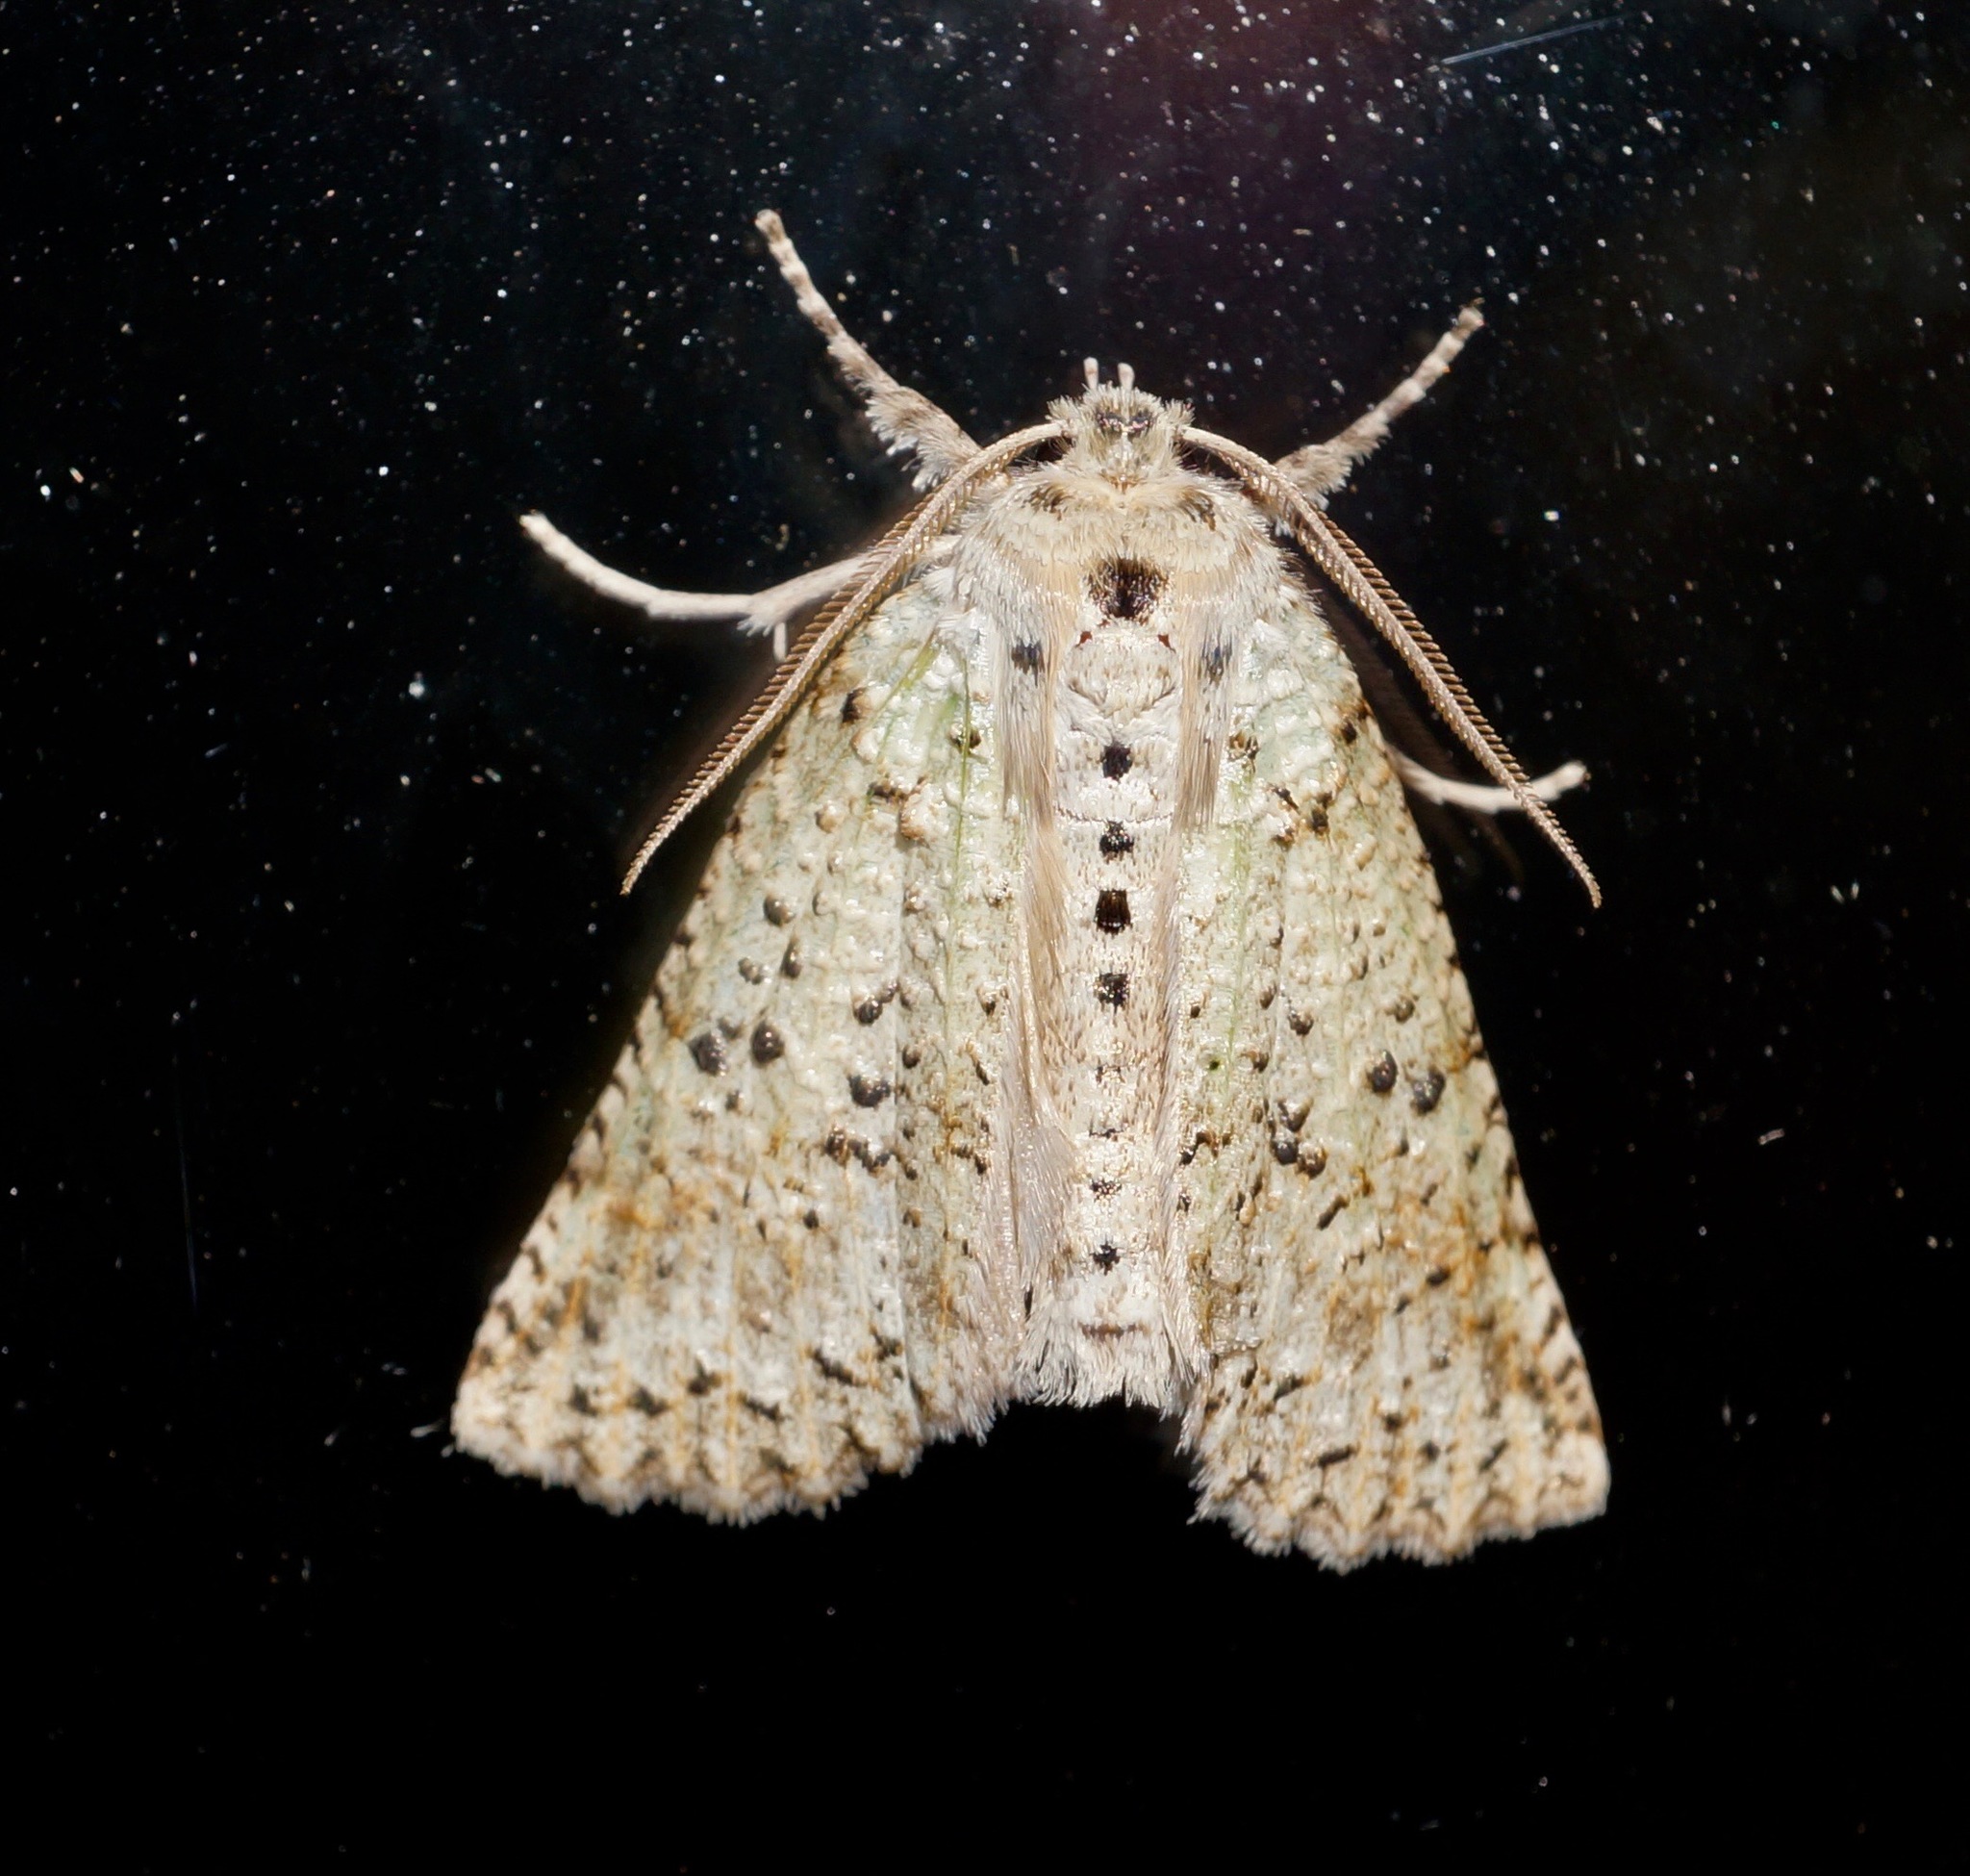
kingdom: Animalia
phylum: Arthropoda
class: Insecta
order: Lepidoptera
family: Geometridae
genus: Declana
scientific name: Declana floccosa
